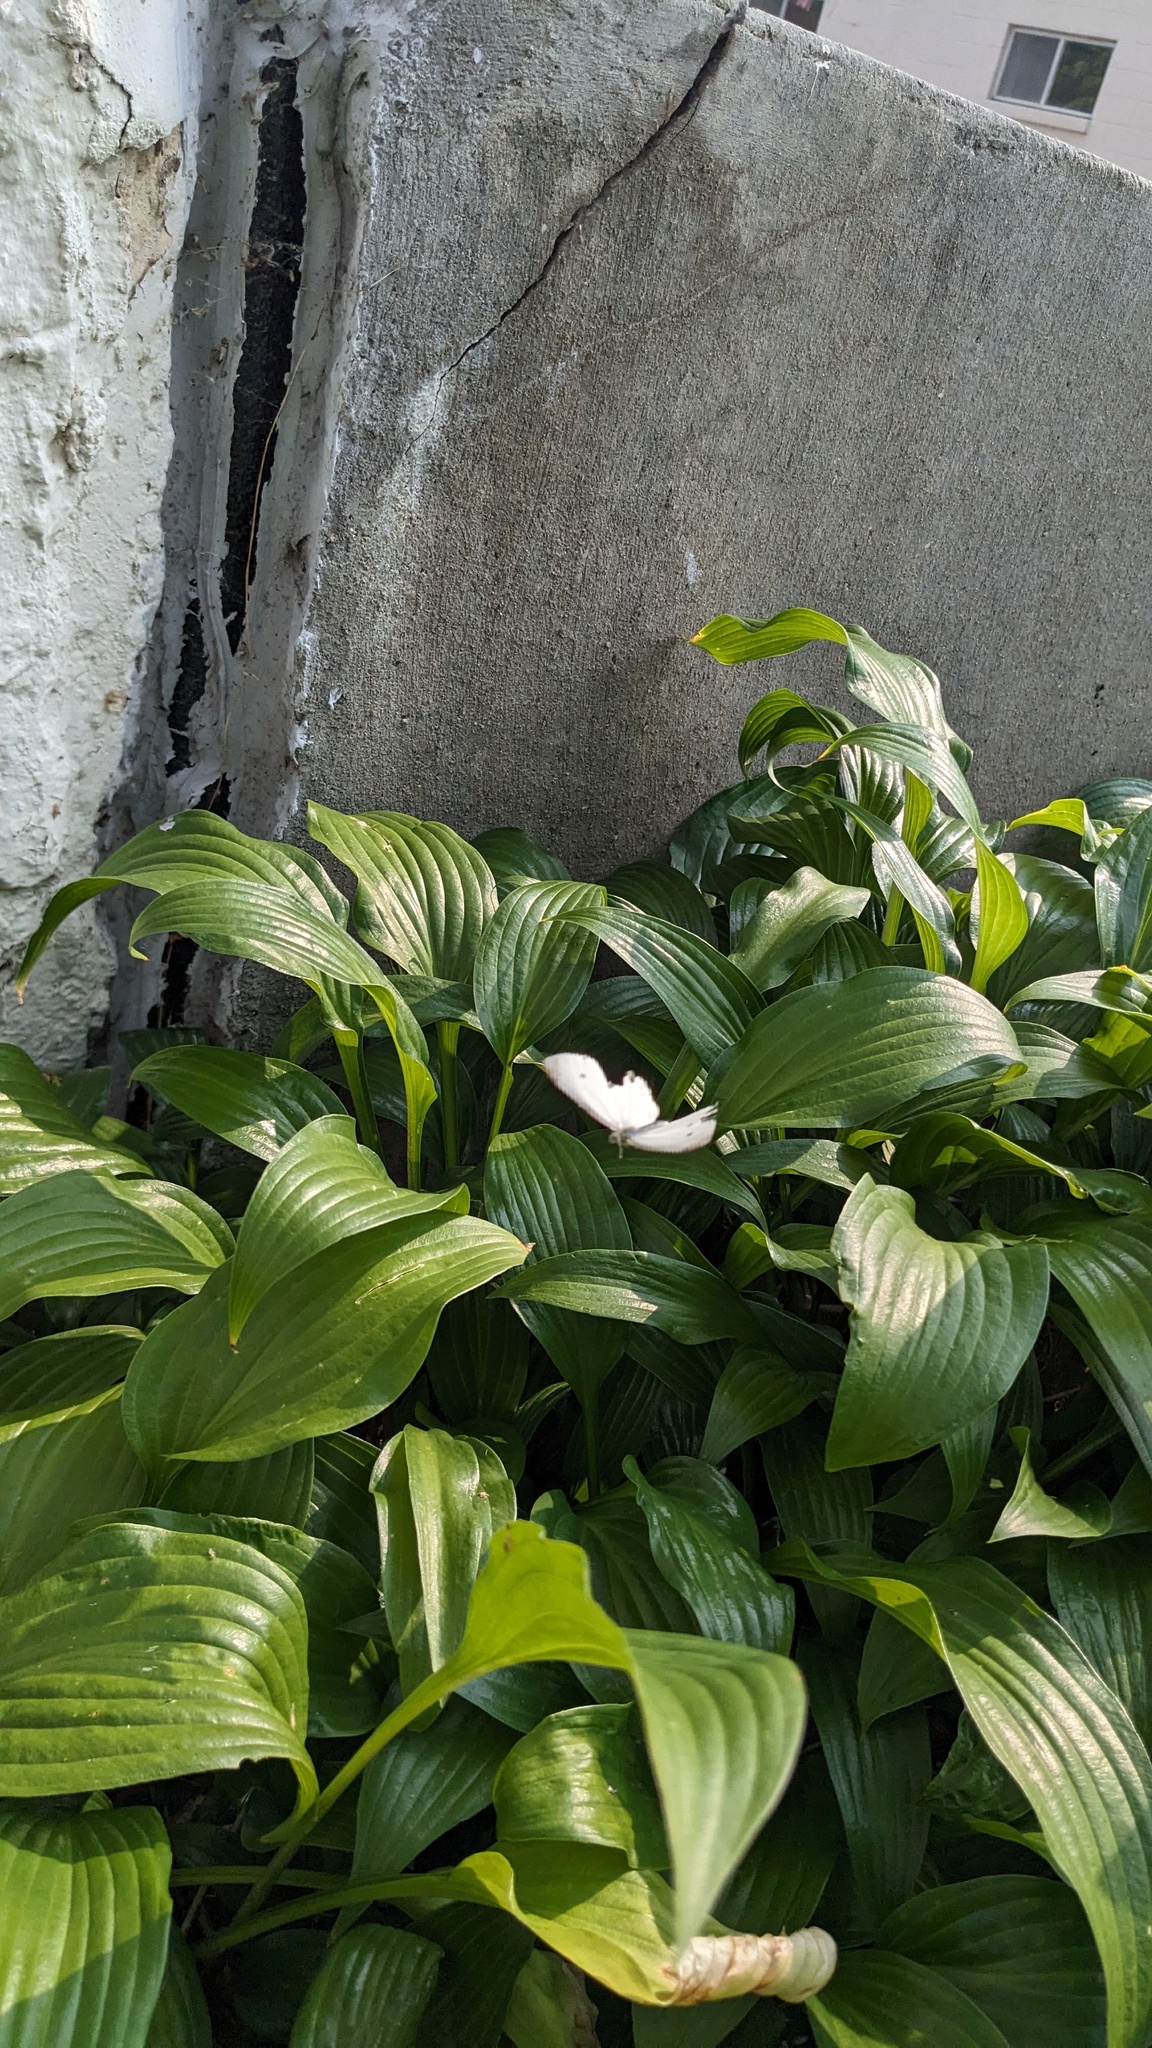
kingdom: Animalia
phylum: Arthropoda
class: Insecta
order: Lepidoptera
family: Pieridae
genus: Pieris
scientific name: Pieris rapae
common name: Small white
